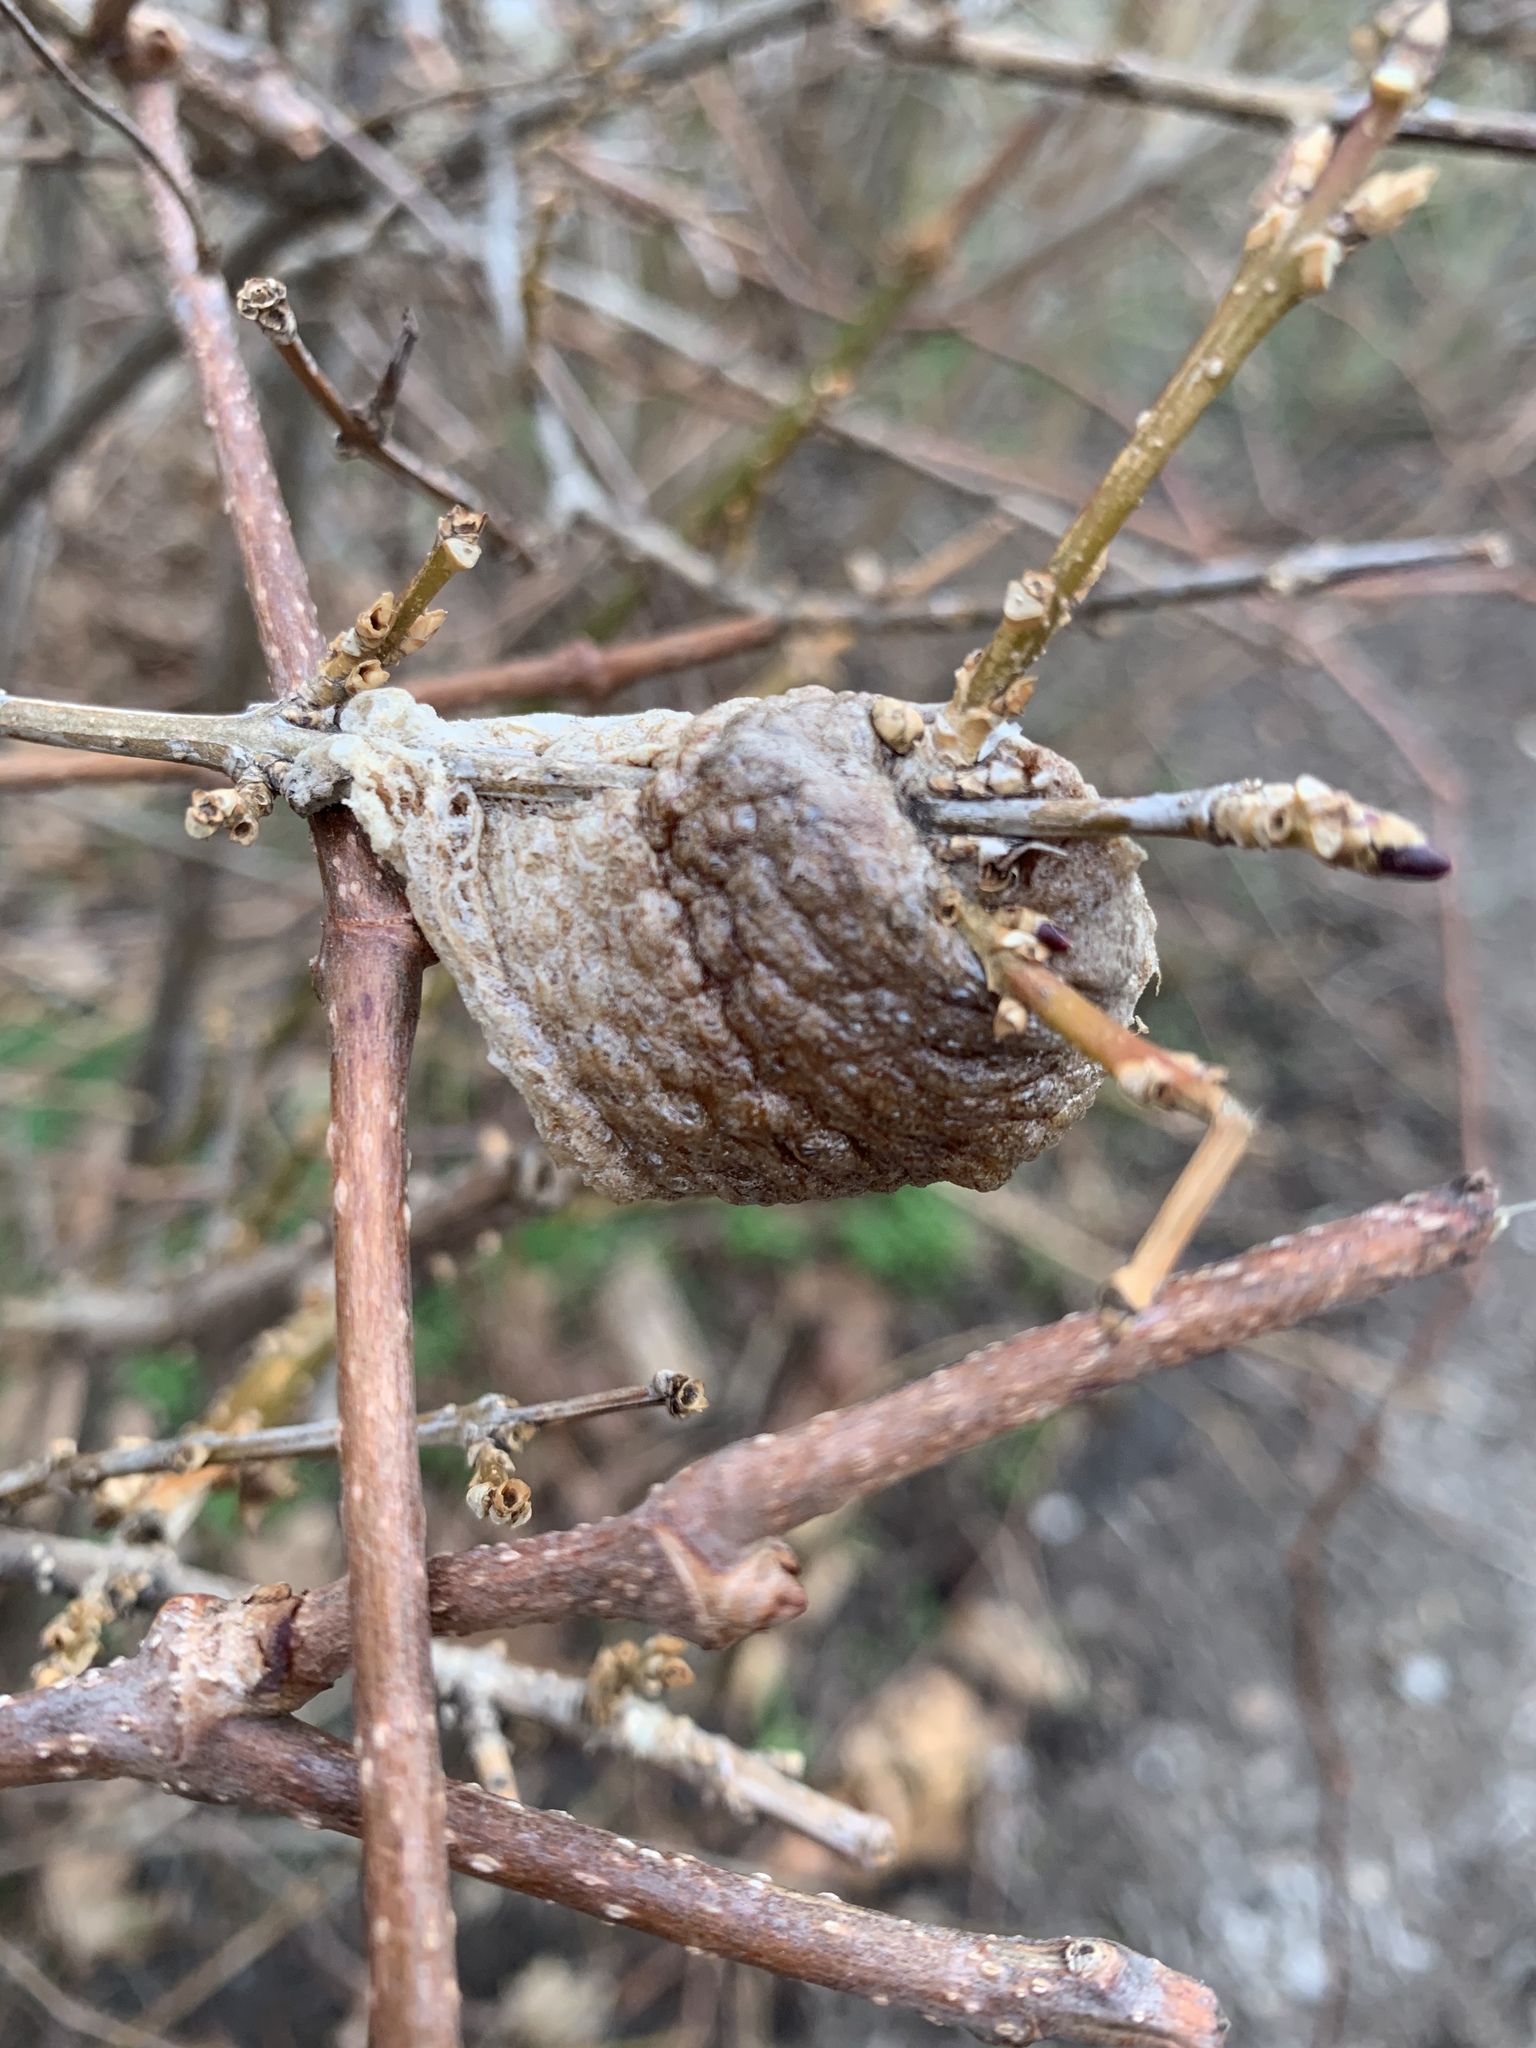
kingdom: Animalia
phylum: Arthropoda
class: Insecta
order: Mantodea
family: Mantidae
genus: Tenodera
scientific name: Tenodera sinensis
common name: Chinese mantis
